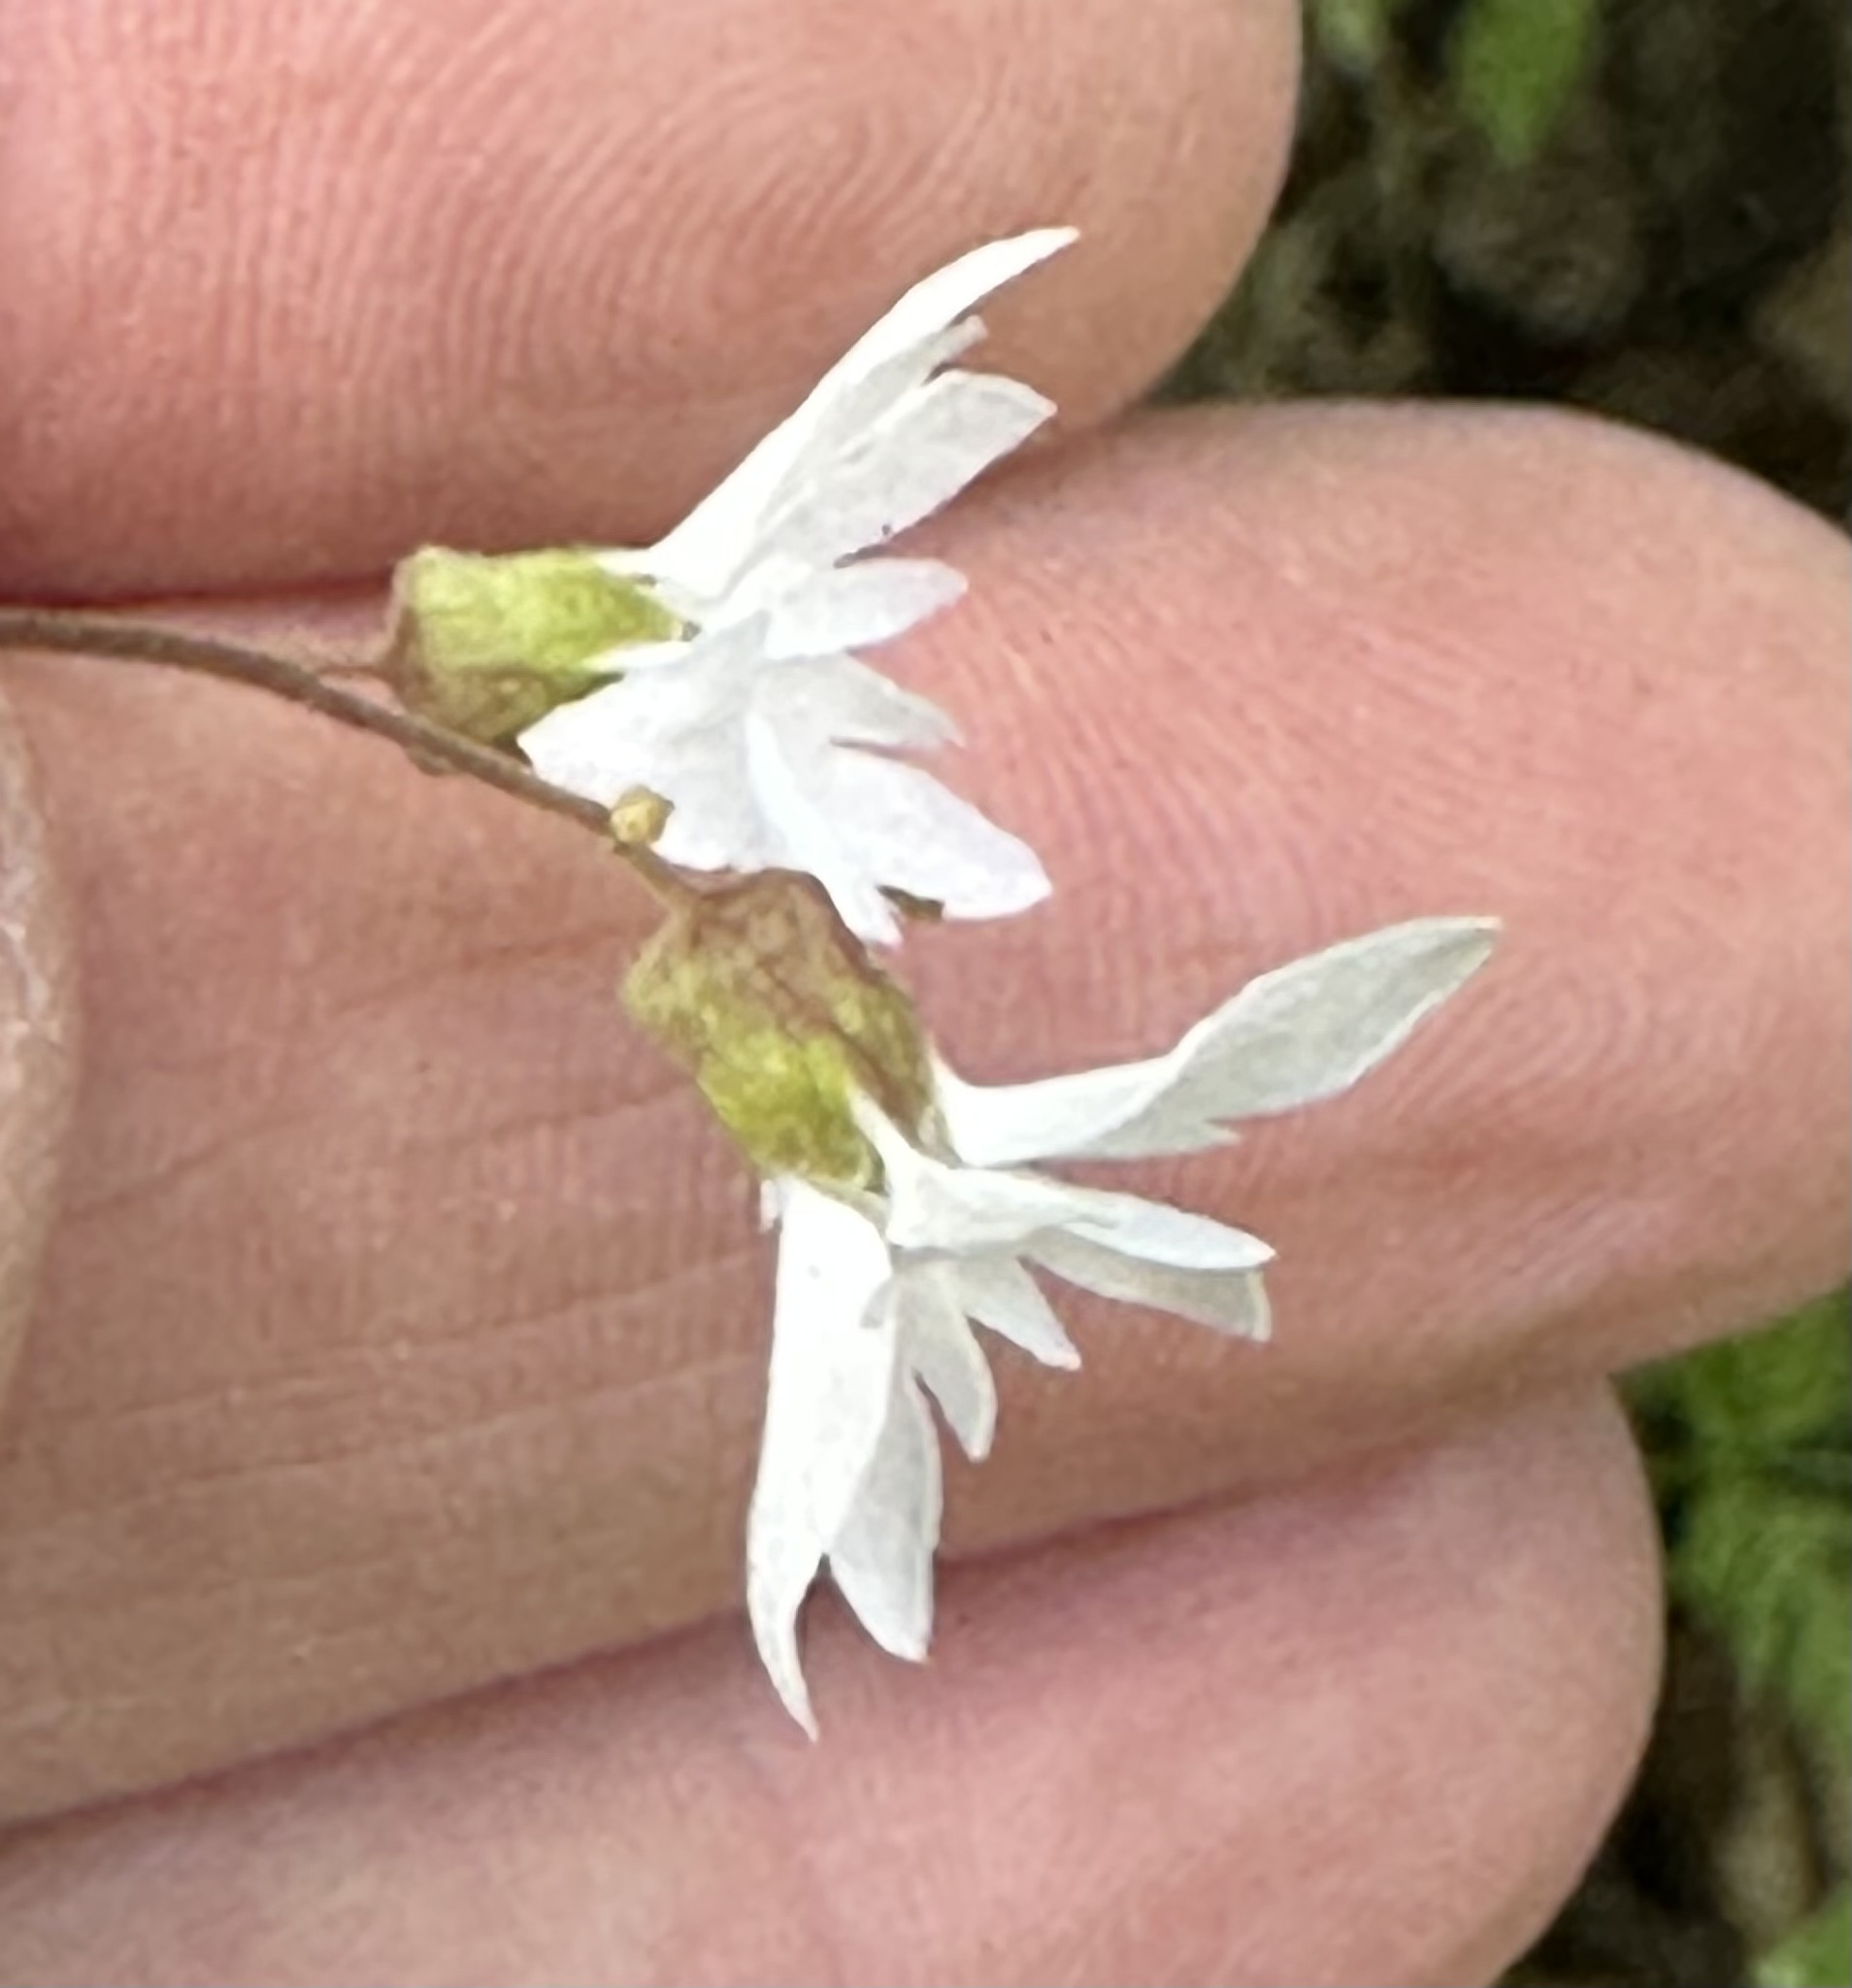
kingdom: Plantae
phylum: Tracheophyta
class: Magnoliopsida
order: Saxifragales
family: Saxifragaceae
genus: Lithophragma
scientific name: Lithophragma heterophyllum
